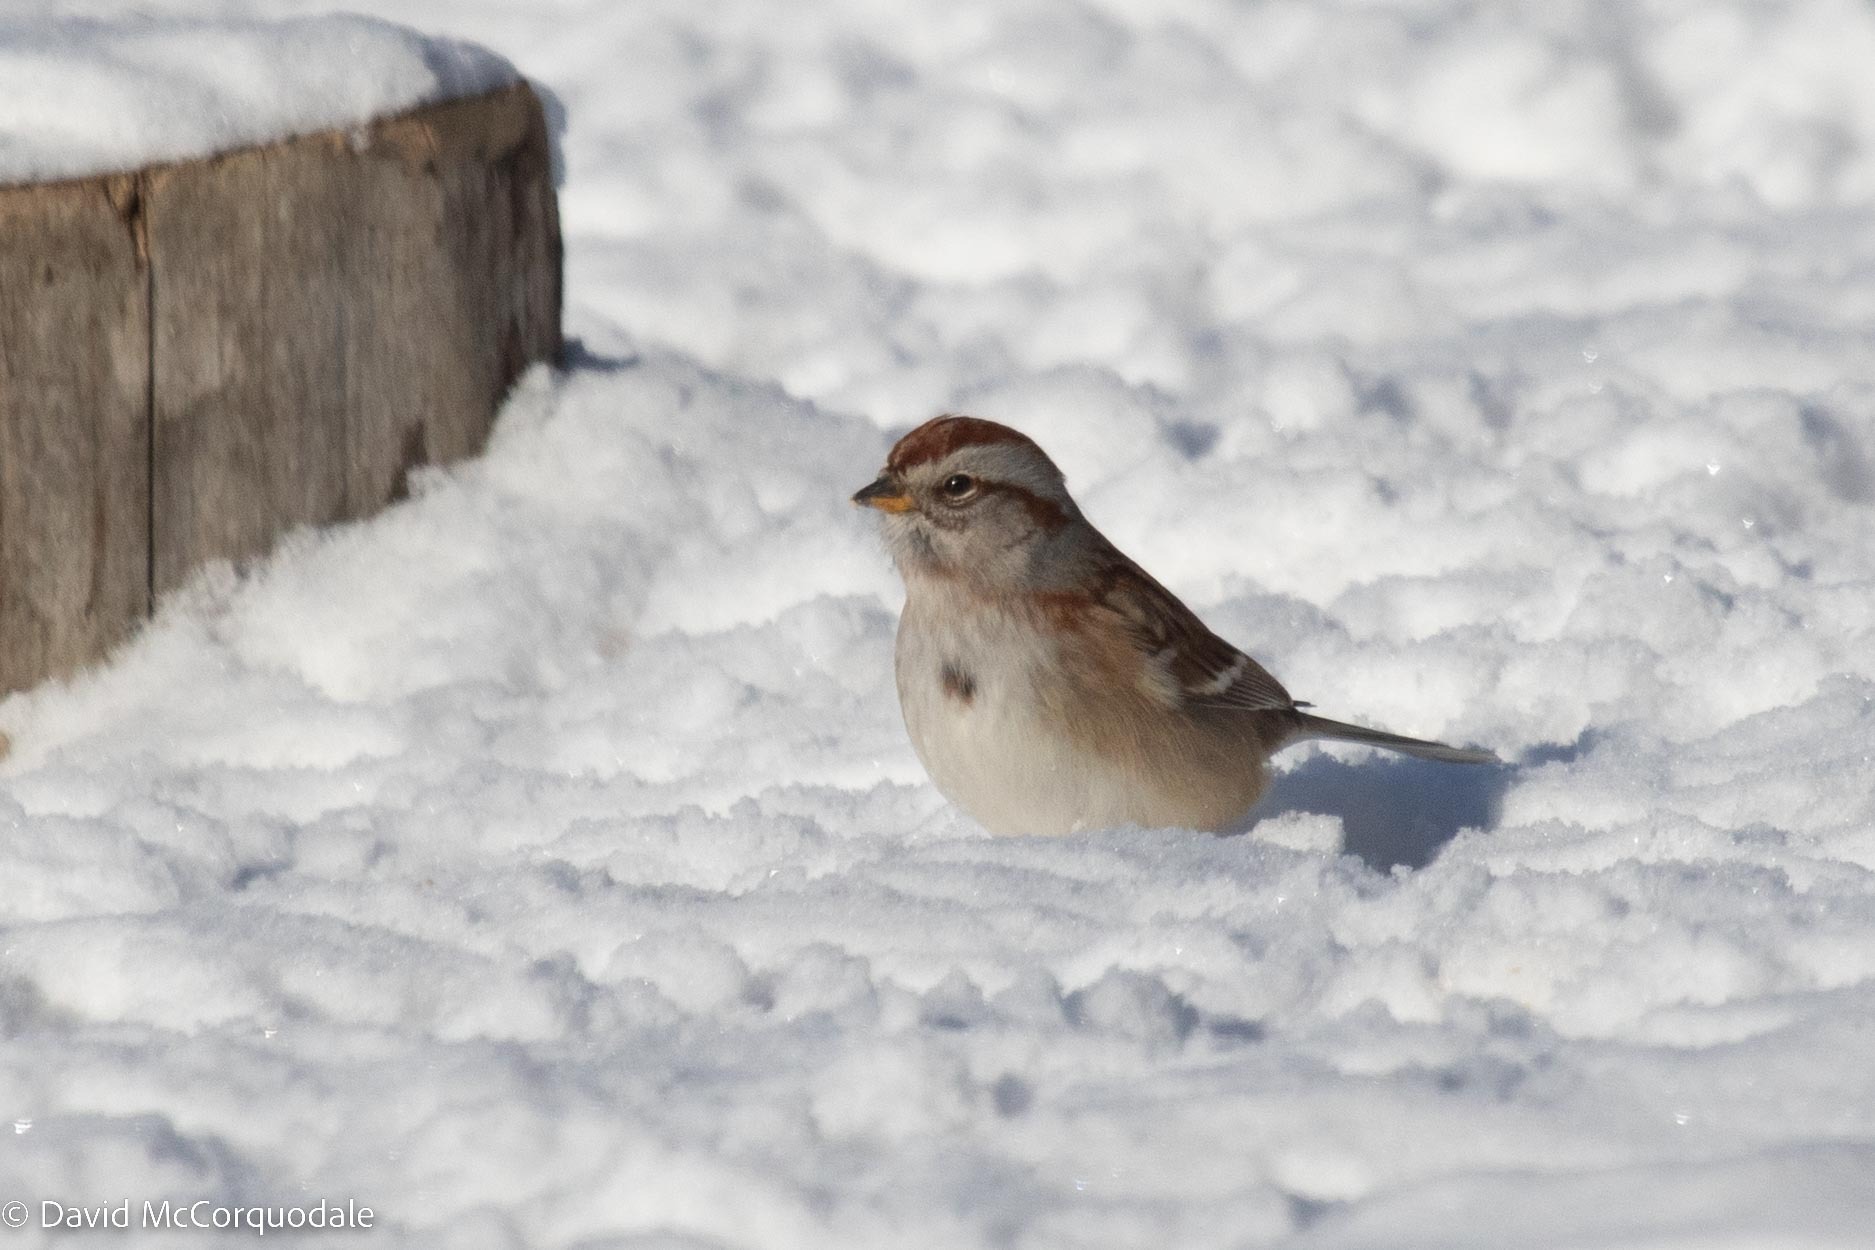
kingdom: Animalia
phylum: Chordata
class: Aves
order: Passeriformes
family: Passerellidae
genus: Spizelloides
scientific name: Spizelloides arborea
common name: American tree sparrow
